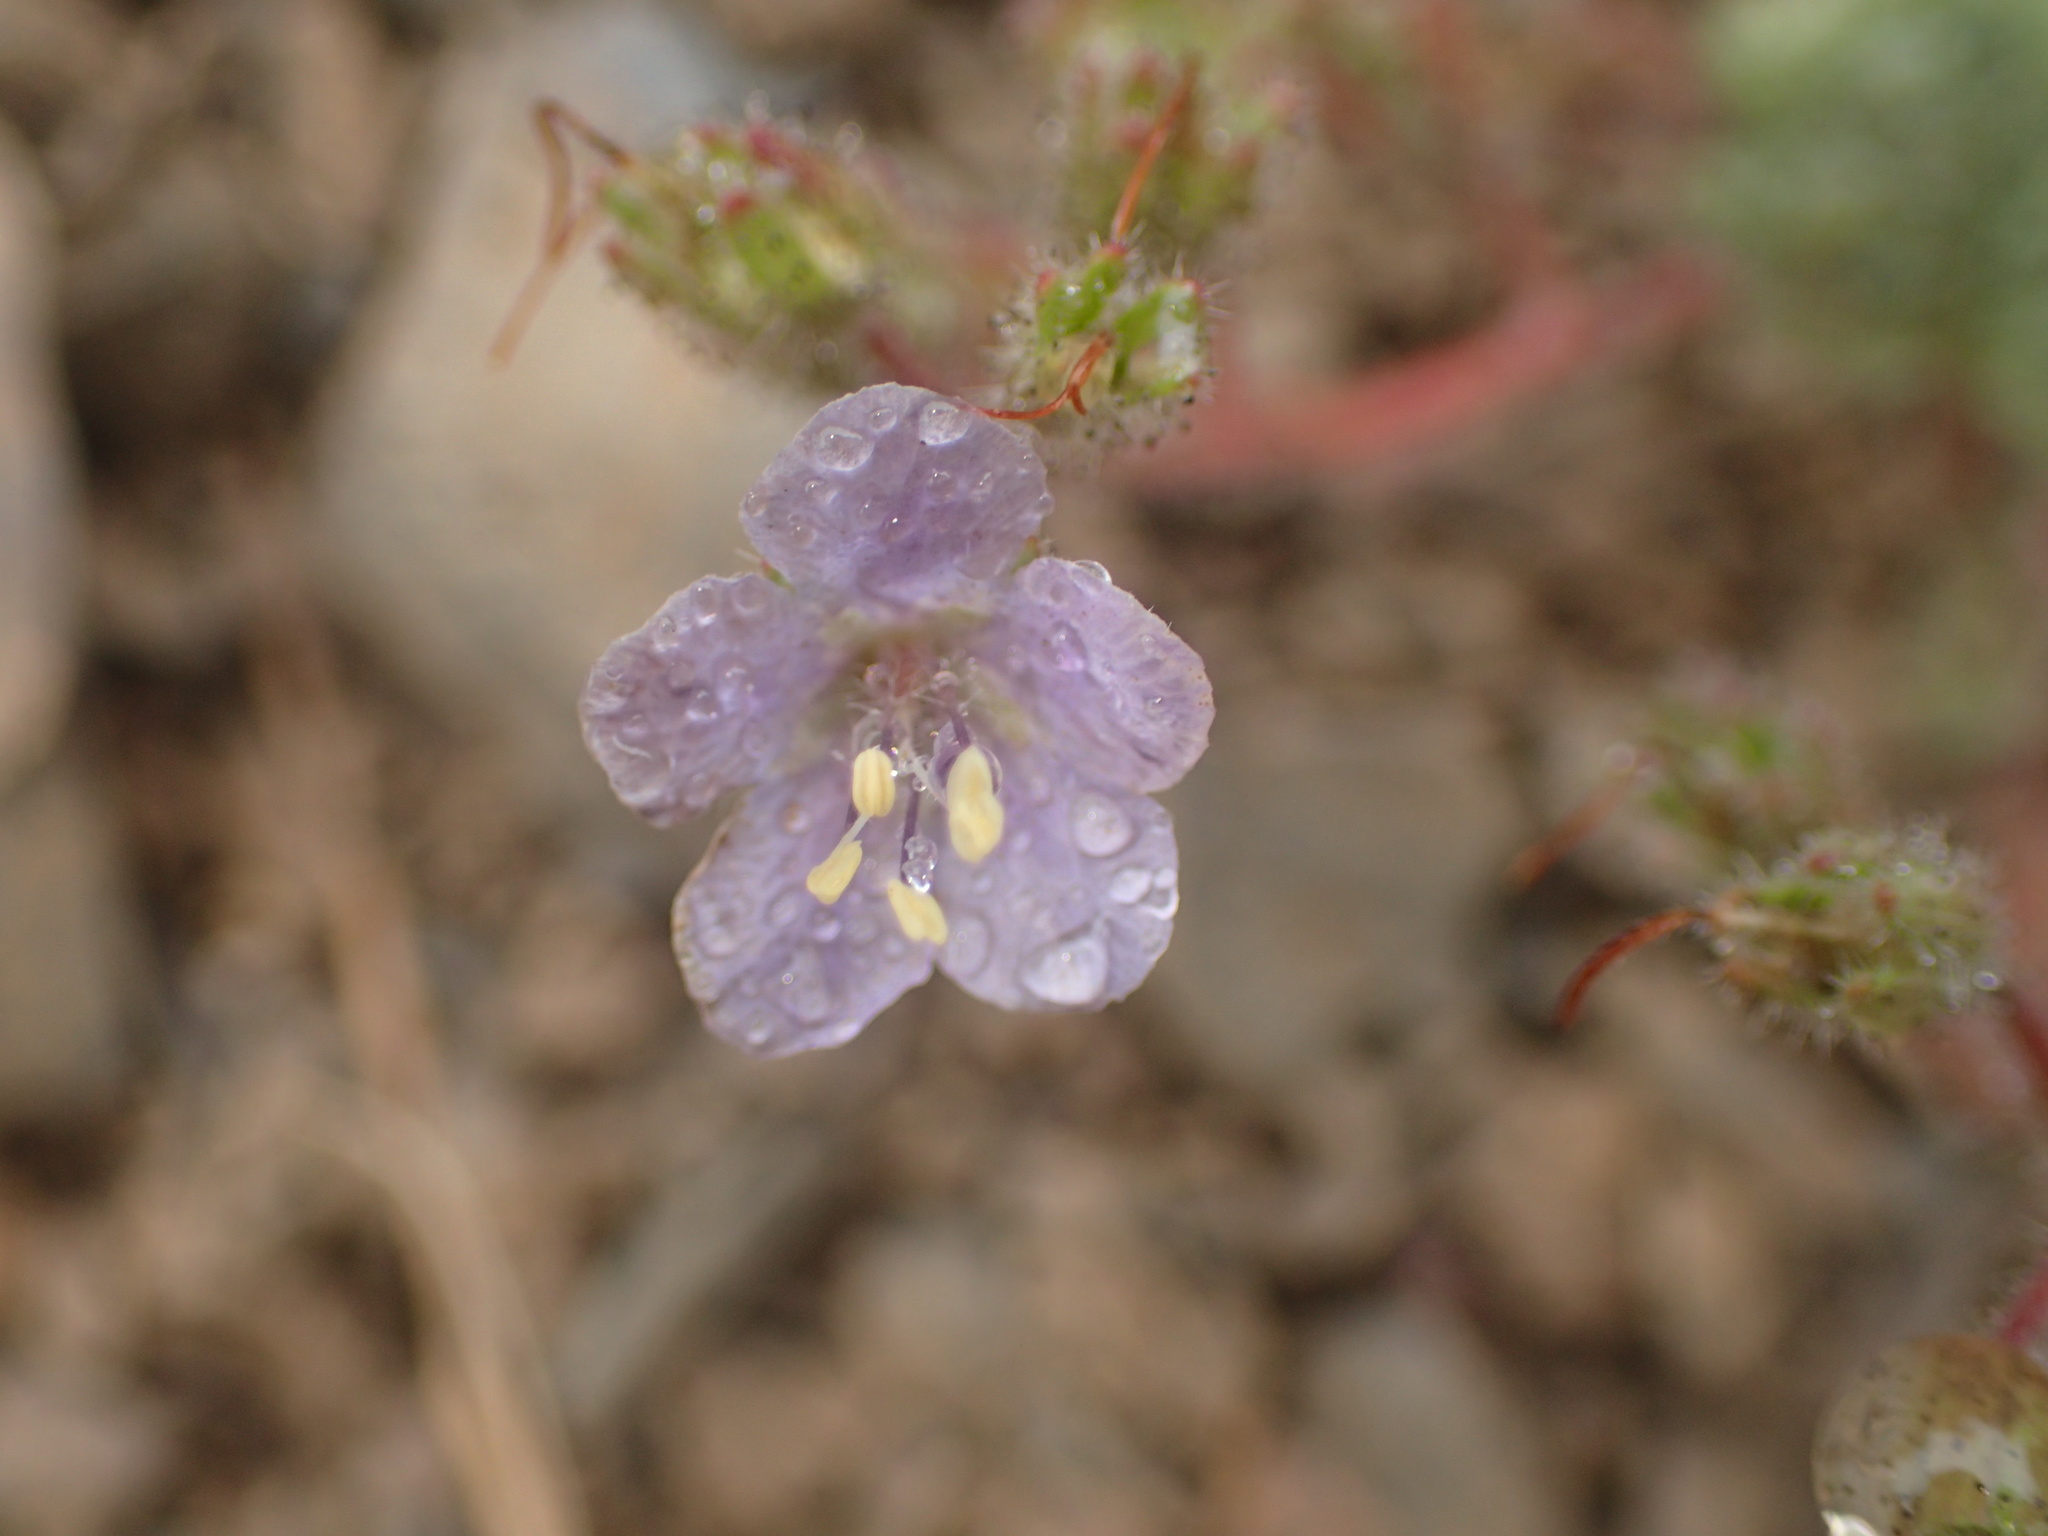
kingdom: Plantae
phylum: Tracheophyta
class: Magnoliopsida
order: Boraginales
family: Hydrophyllaceae
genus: Phacelia
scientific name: Phacelia longipes
